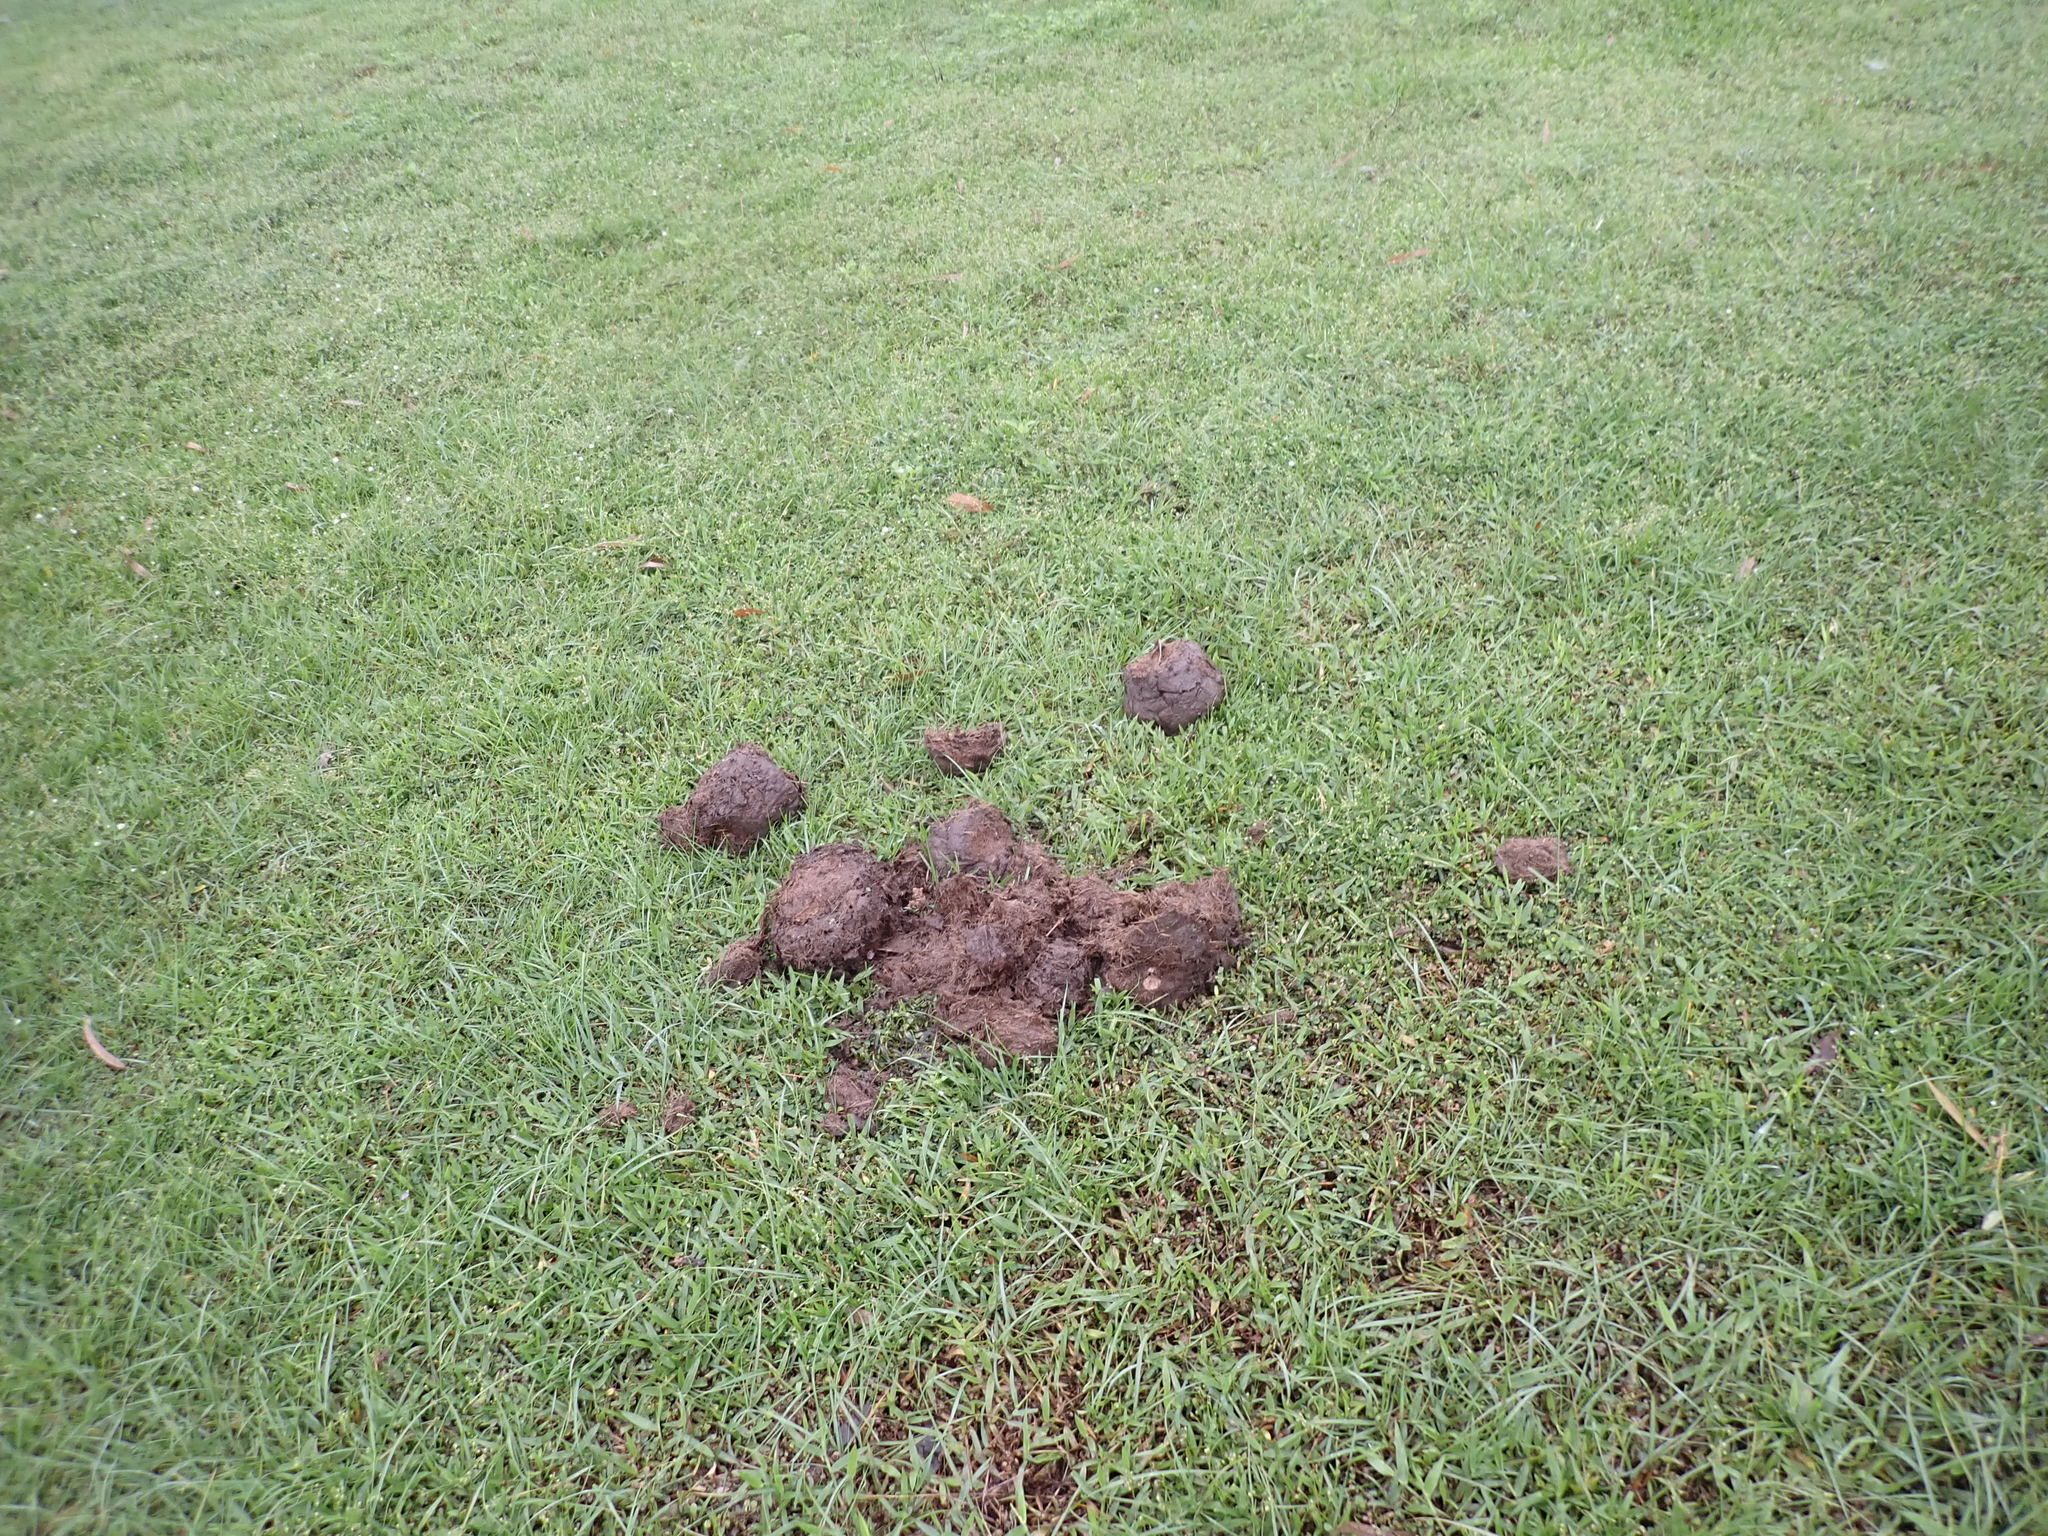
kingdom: Animalia
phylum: Chordata
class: Mammalia
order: Proboscidea
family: Elephantidae
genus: Elephas
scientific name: Elephas maximus
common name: Asian elephant
